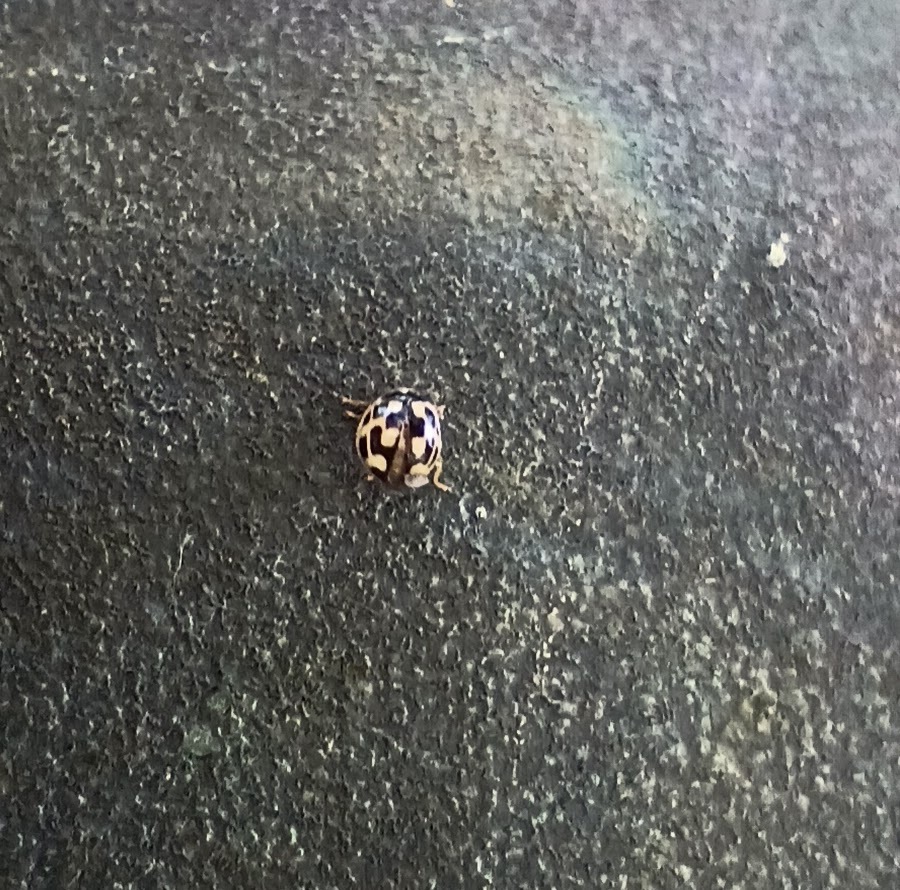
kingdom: Animalia
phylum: Arthropoda
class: Insecta
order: Coleoptera
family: Coccinellidae
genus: Propylaea
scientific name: Propylaea quatuordecimpunctata
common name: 14-spotted ladybird beetle
